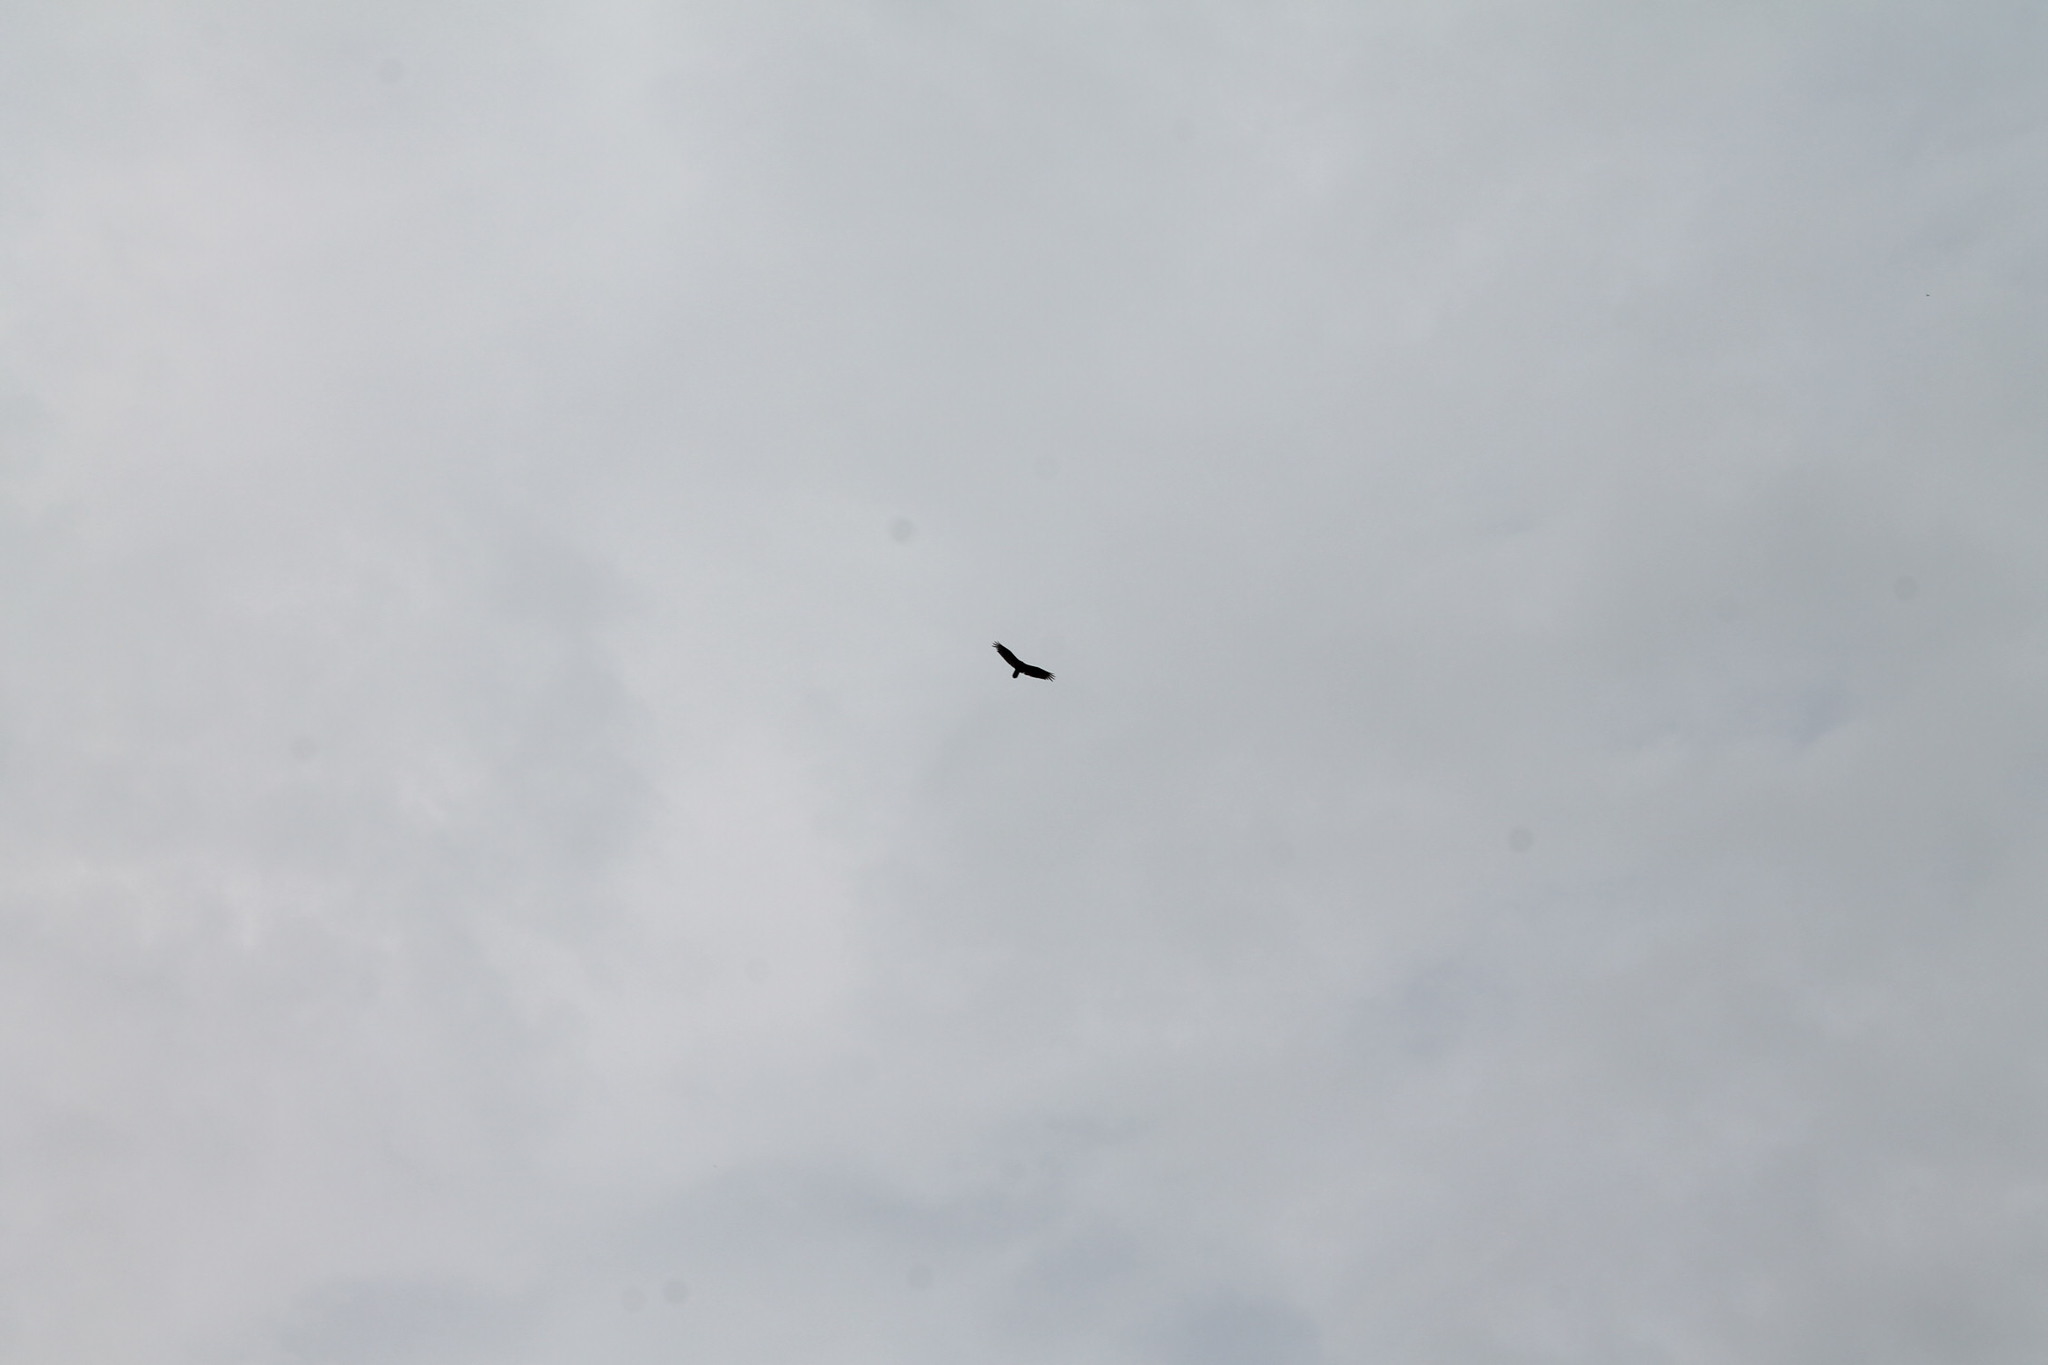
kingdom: Animalia
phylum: Chordata
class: Aves
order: Accipitriformes
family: Cathartidae
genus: Cathartes
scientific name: Cathartes aura
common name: Turkey vulture
